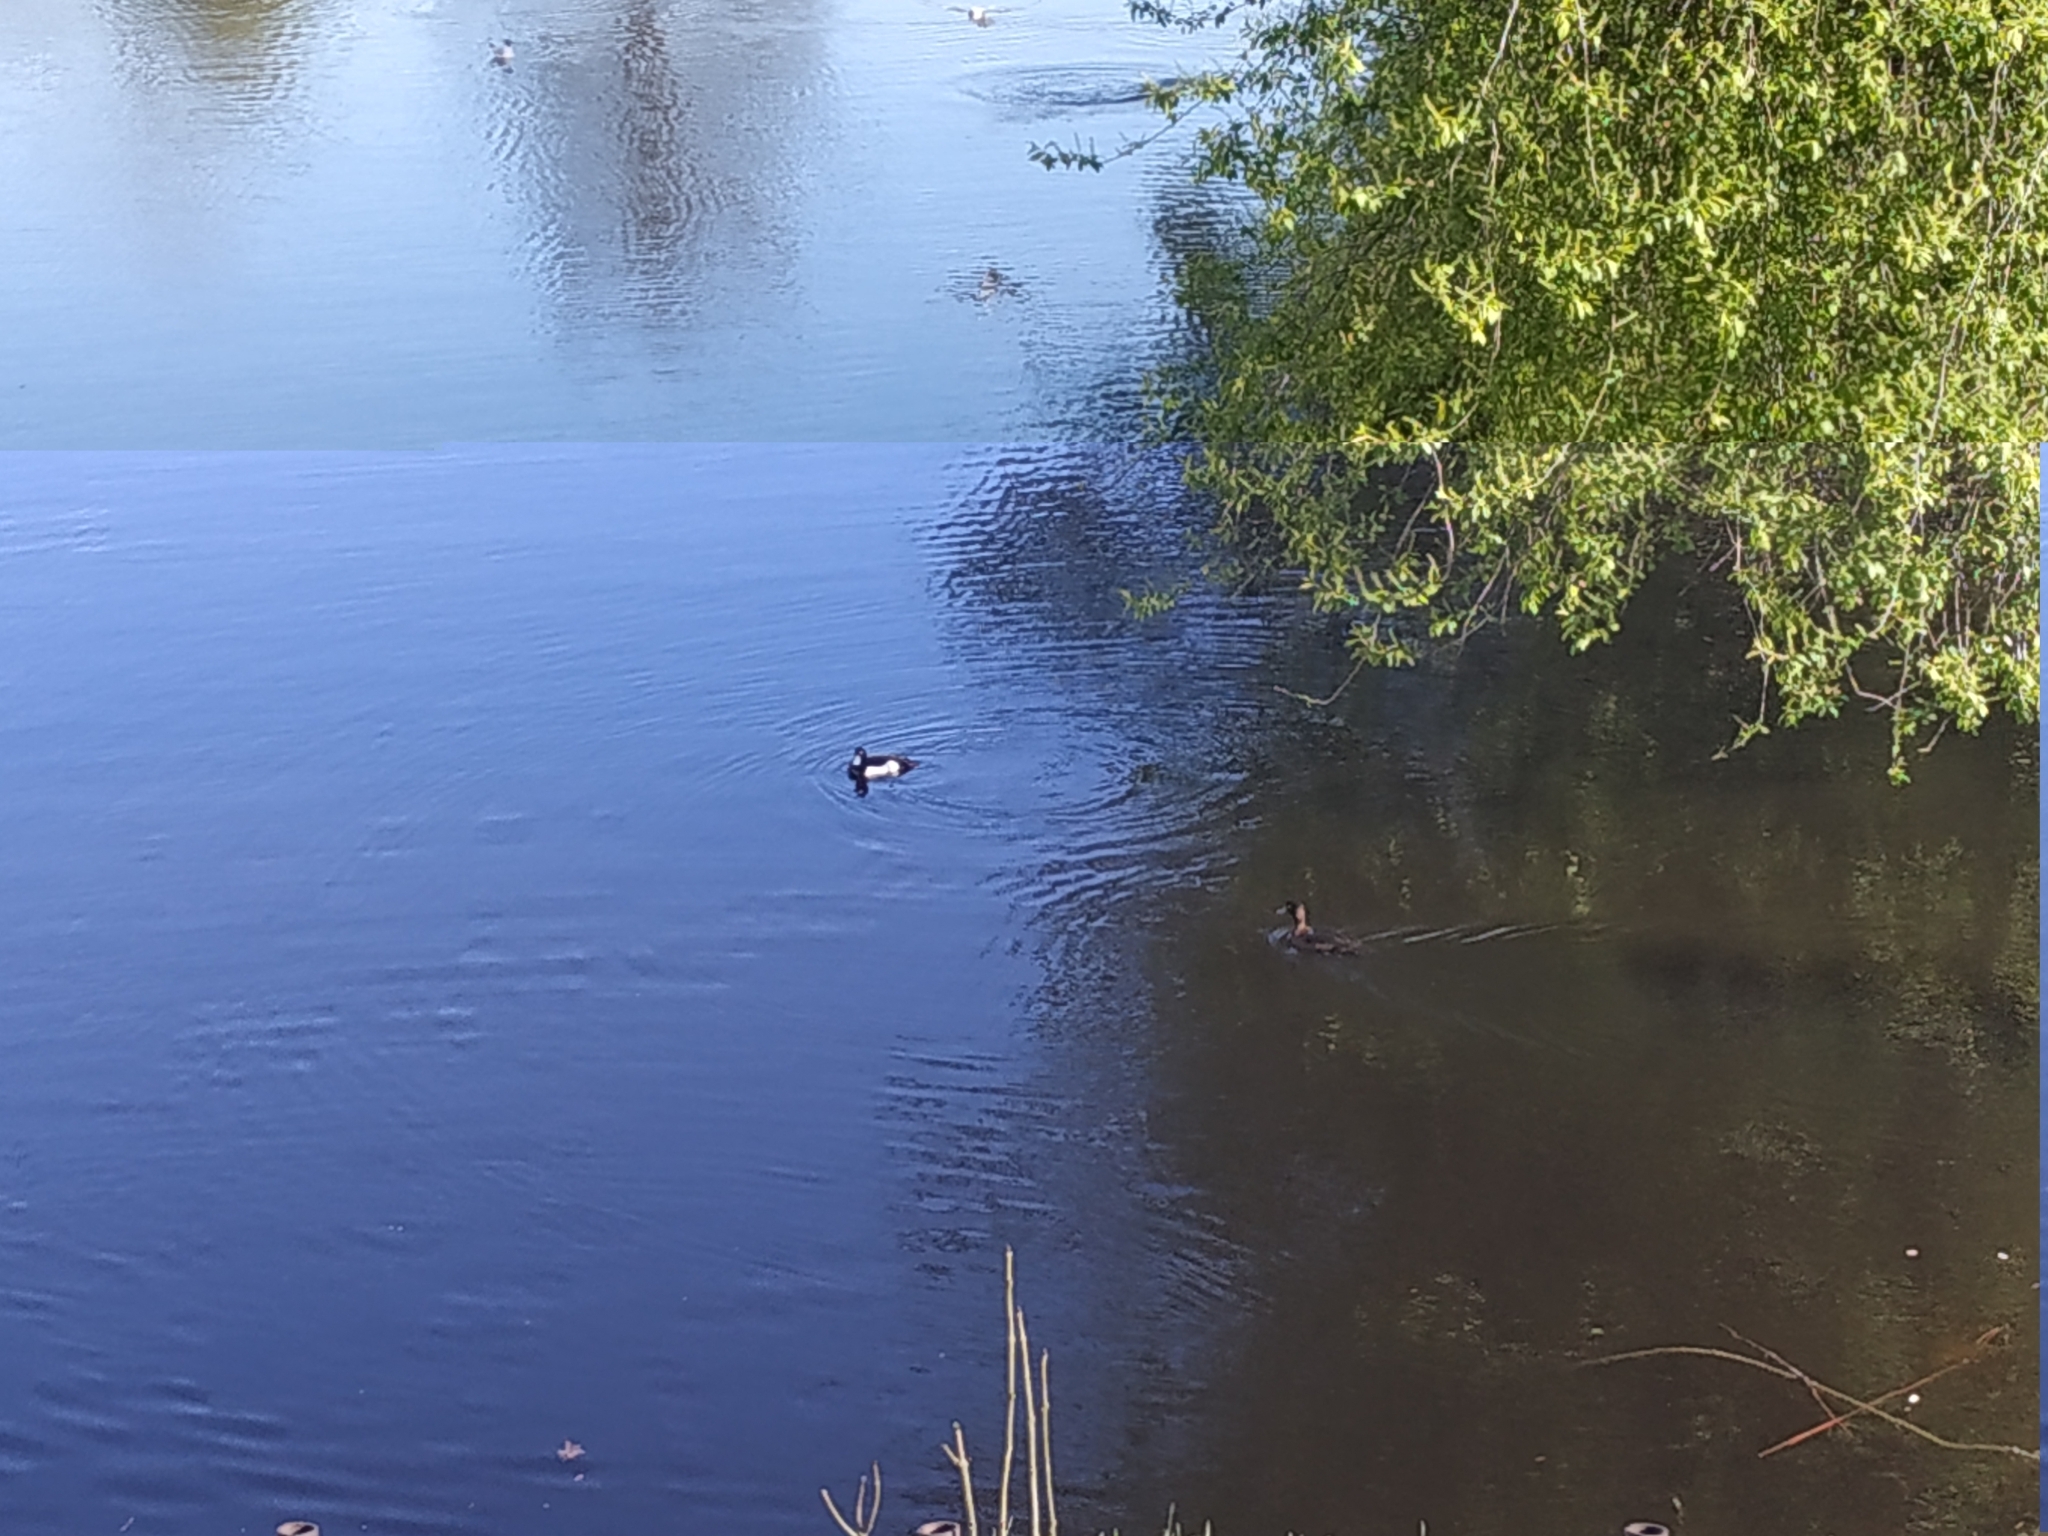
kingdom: Animalia
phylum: Chordata
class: Aves
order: Anseriformes
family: Anatidae
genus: Aythya
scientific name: Aythya fuligula
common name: Tufted duck
